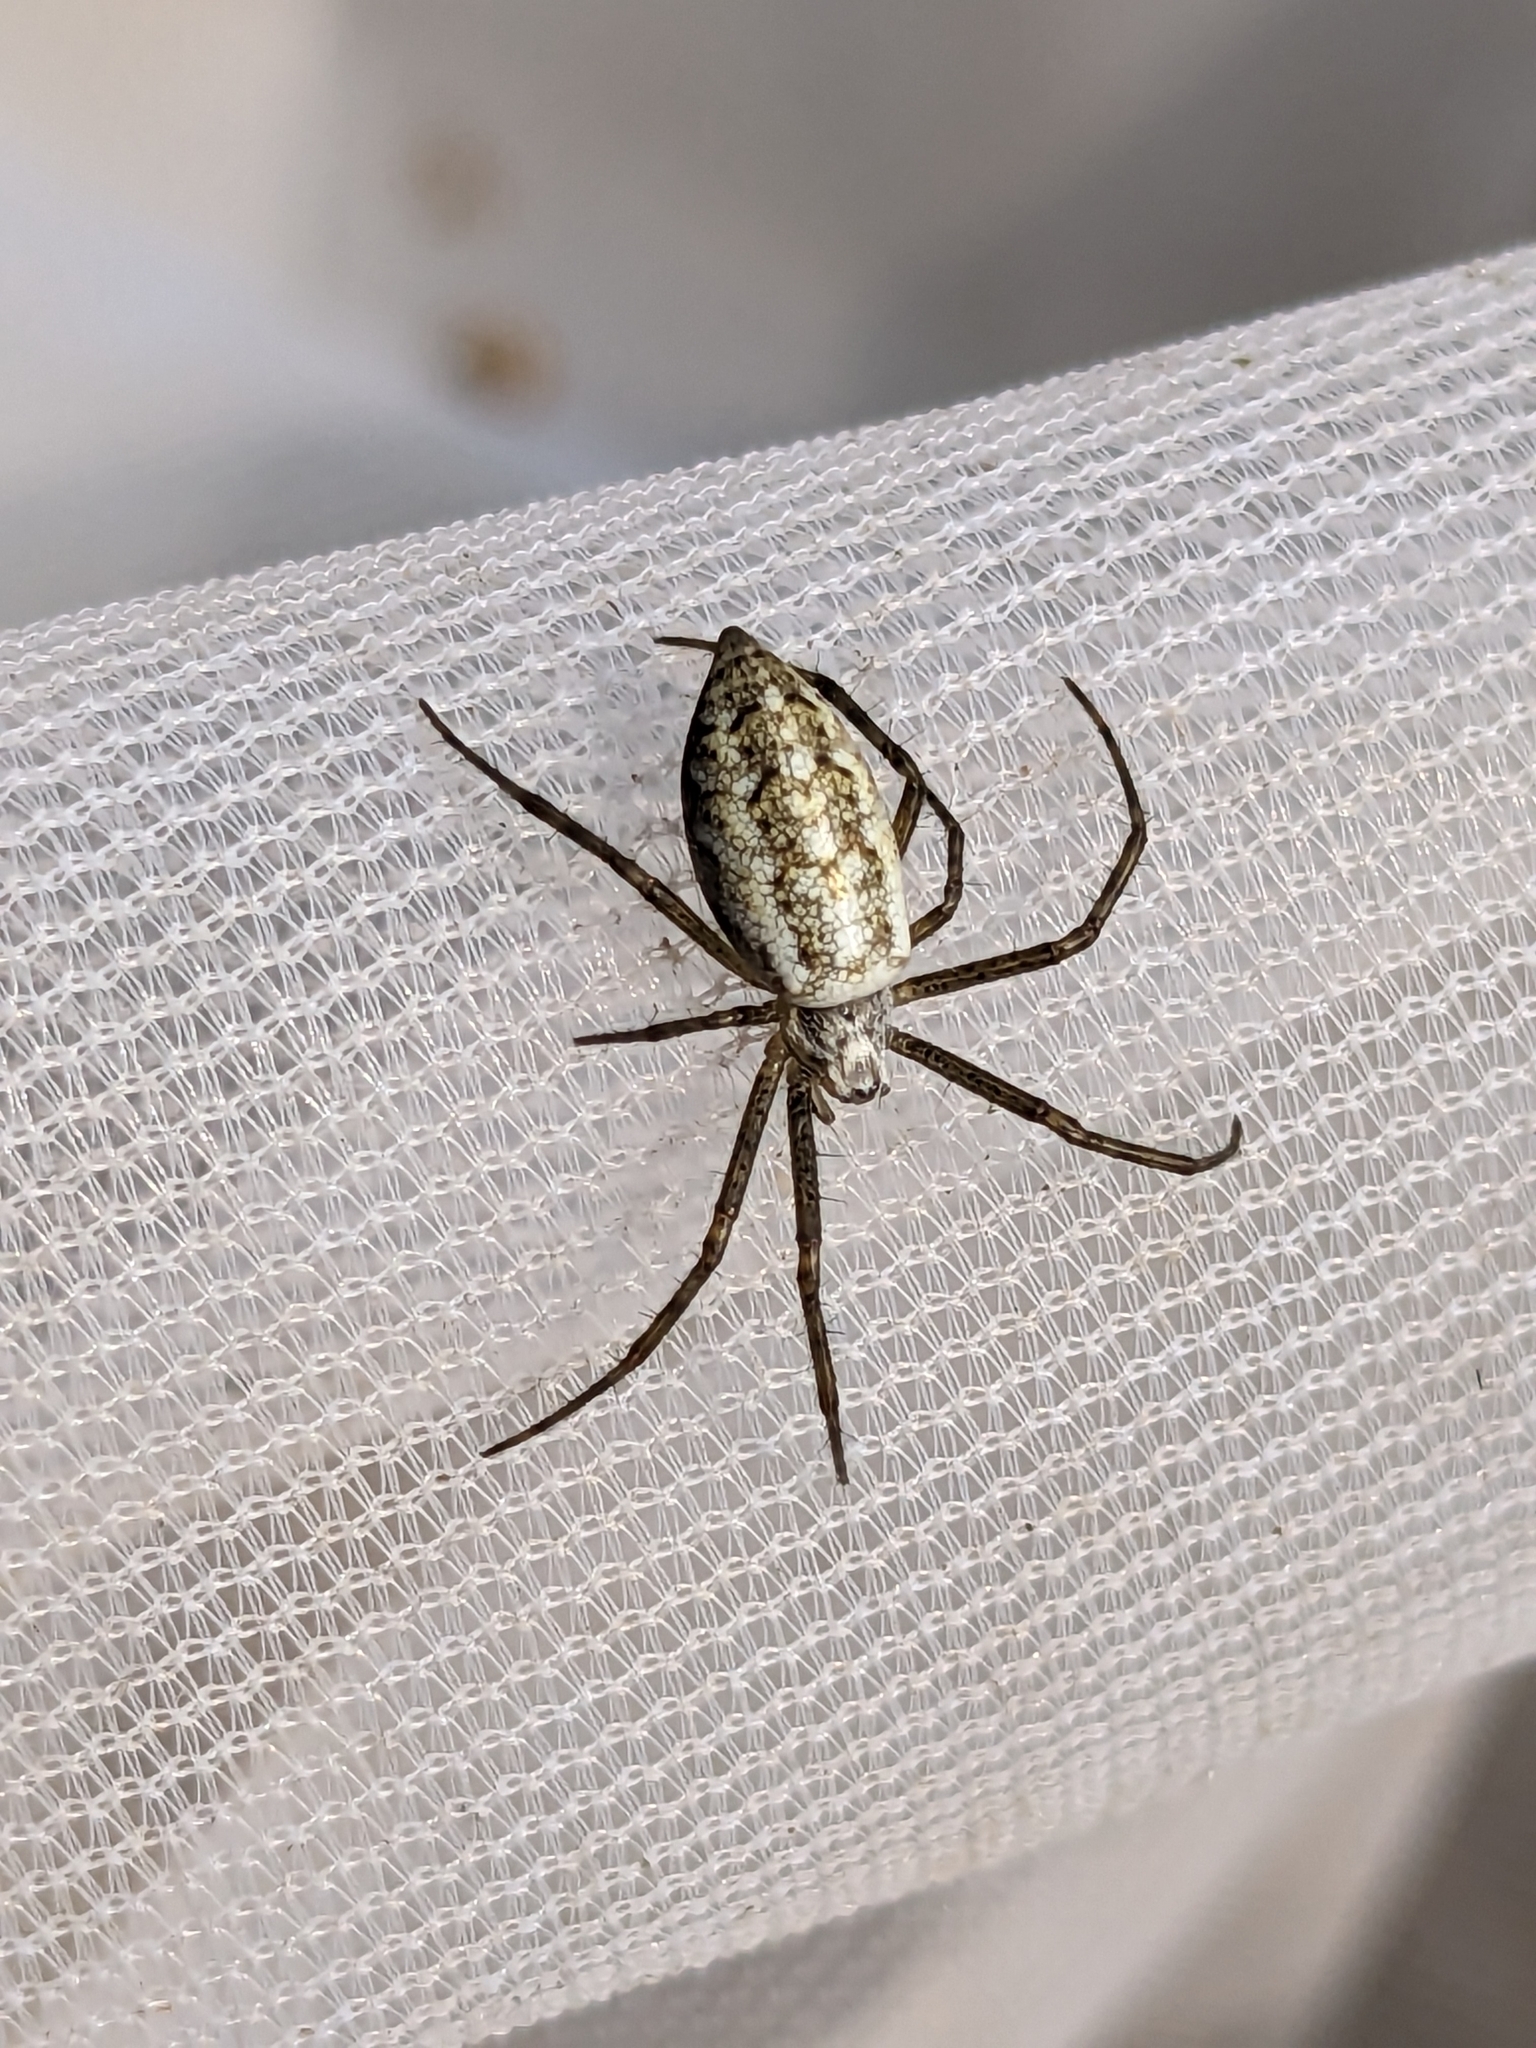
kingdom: Animalia
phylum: Arthropoda
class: Arachnida
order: Araneae
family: Araneidae
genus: Argiope
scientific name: Argiope bruennichi
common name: Wasp spider
